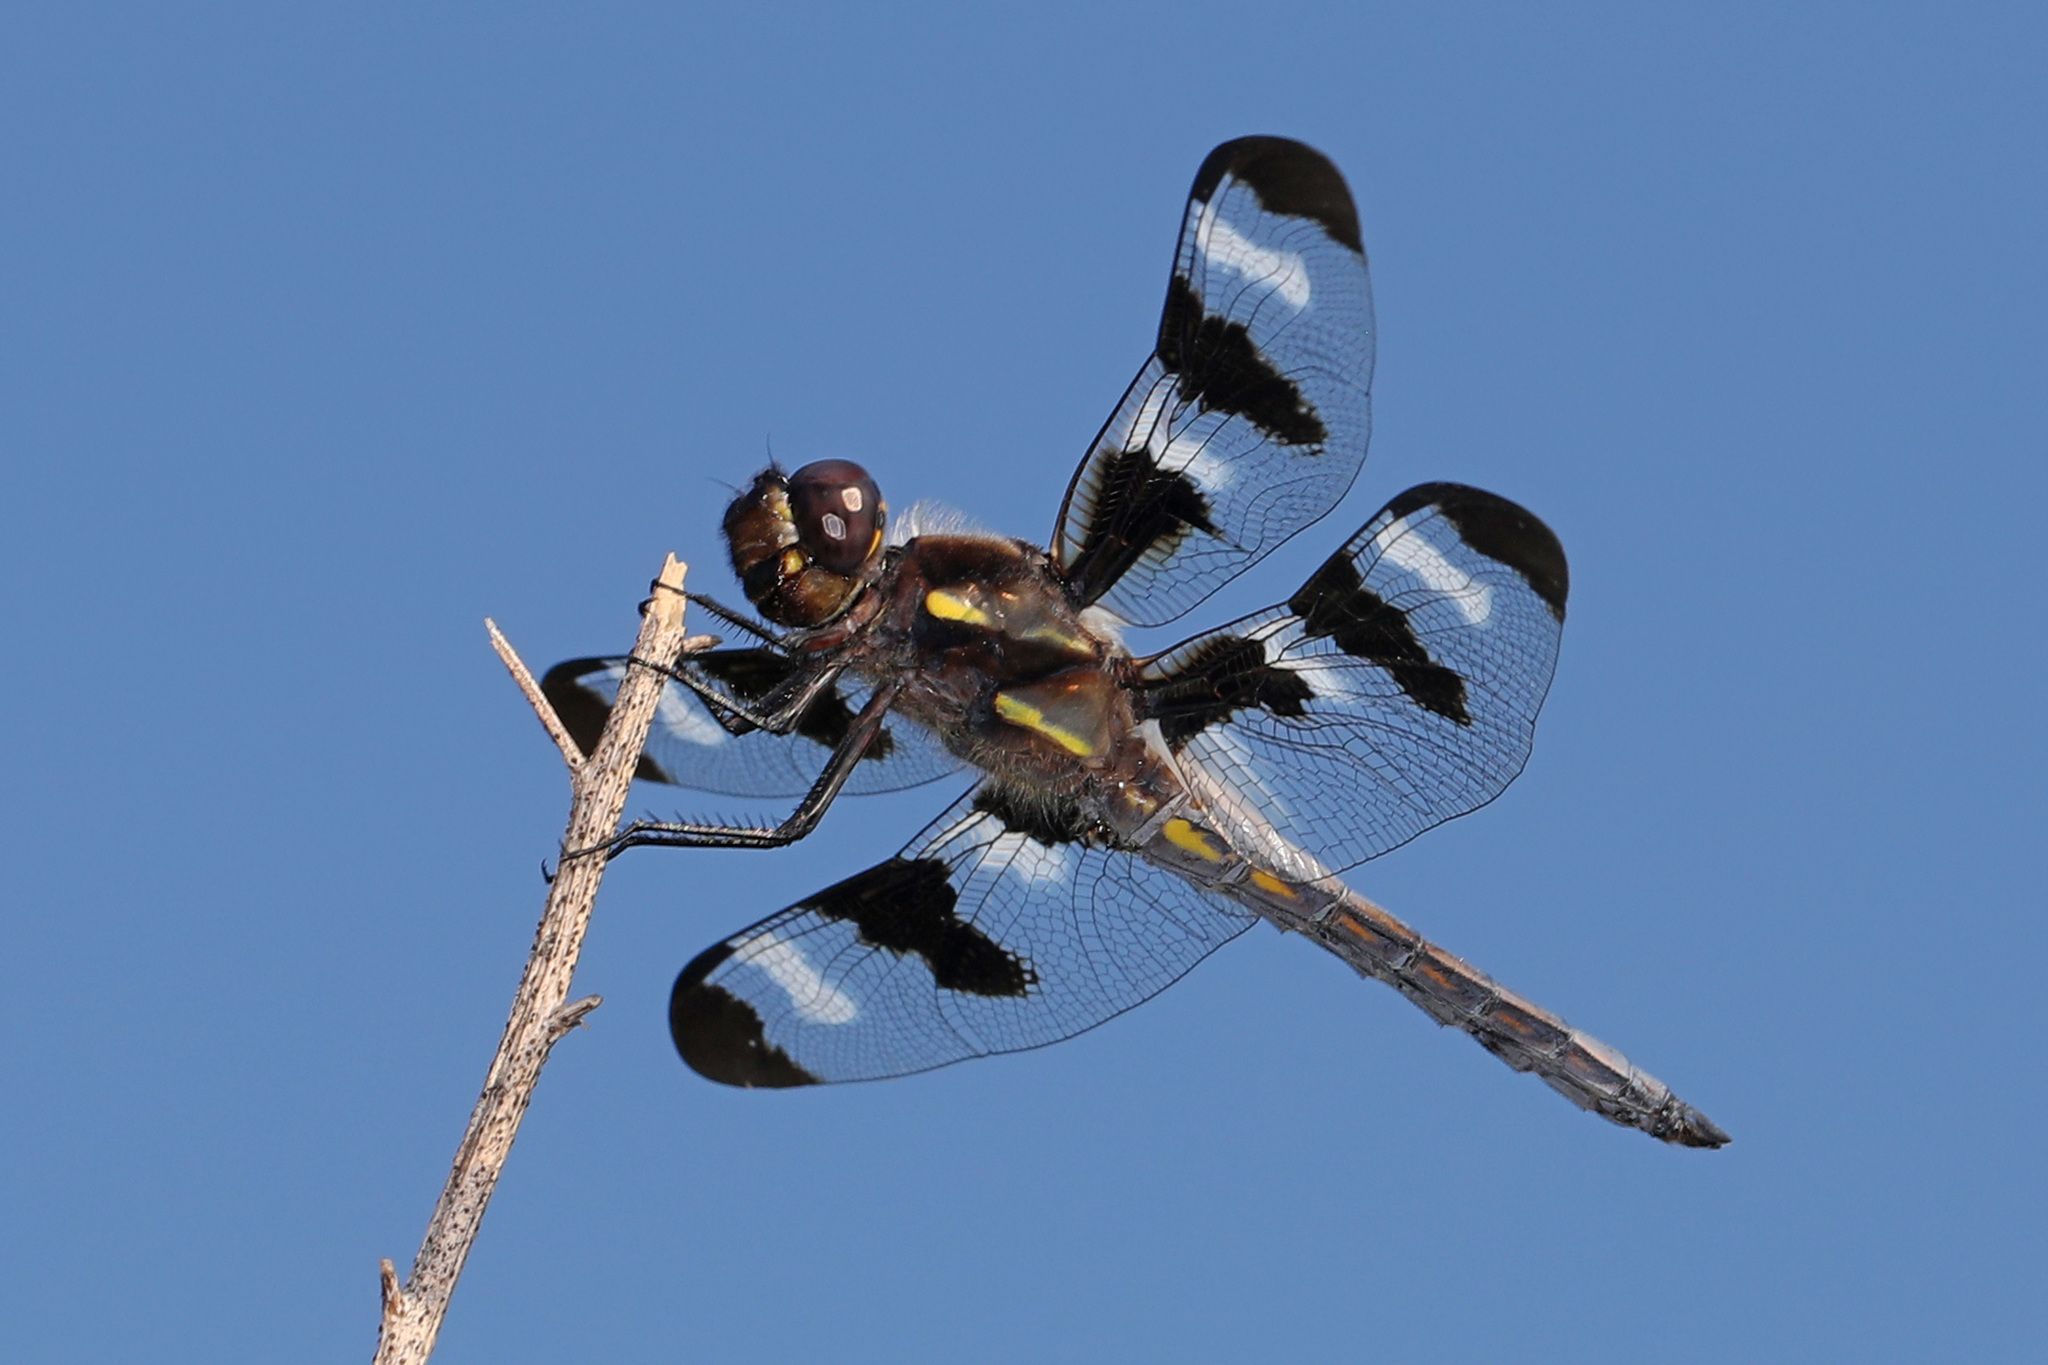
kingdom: Animalia
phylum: Arthropoda
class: Insecta
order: Odonata
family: Libellulidae
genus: Libellula
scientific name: Libellula pulchella
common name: Twelve-spotted skimmer
